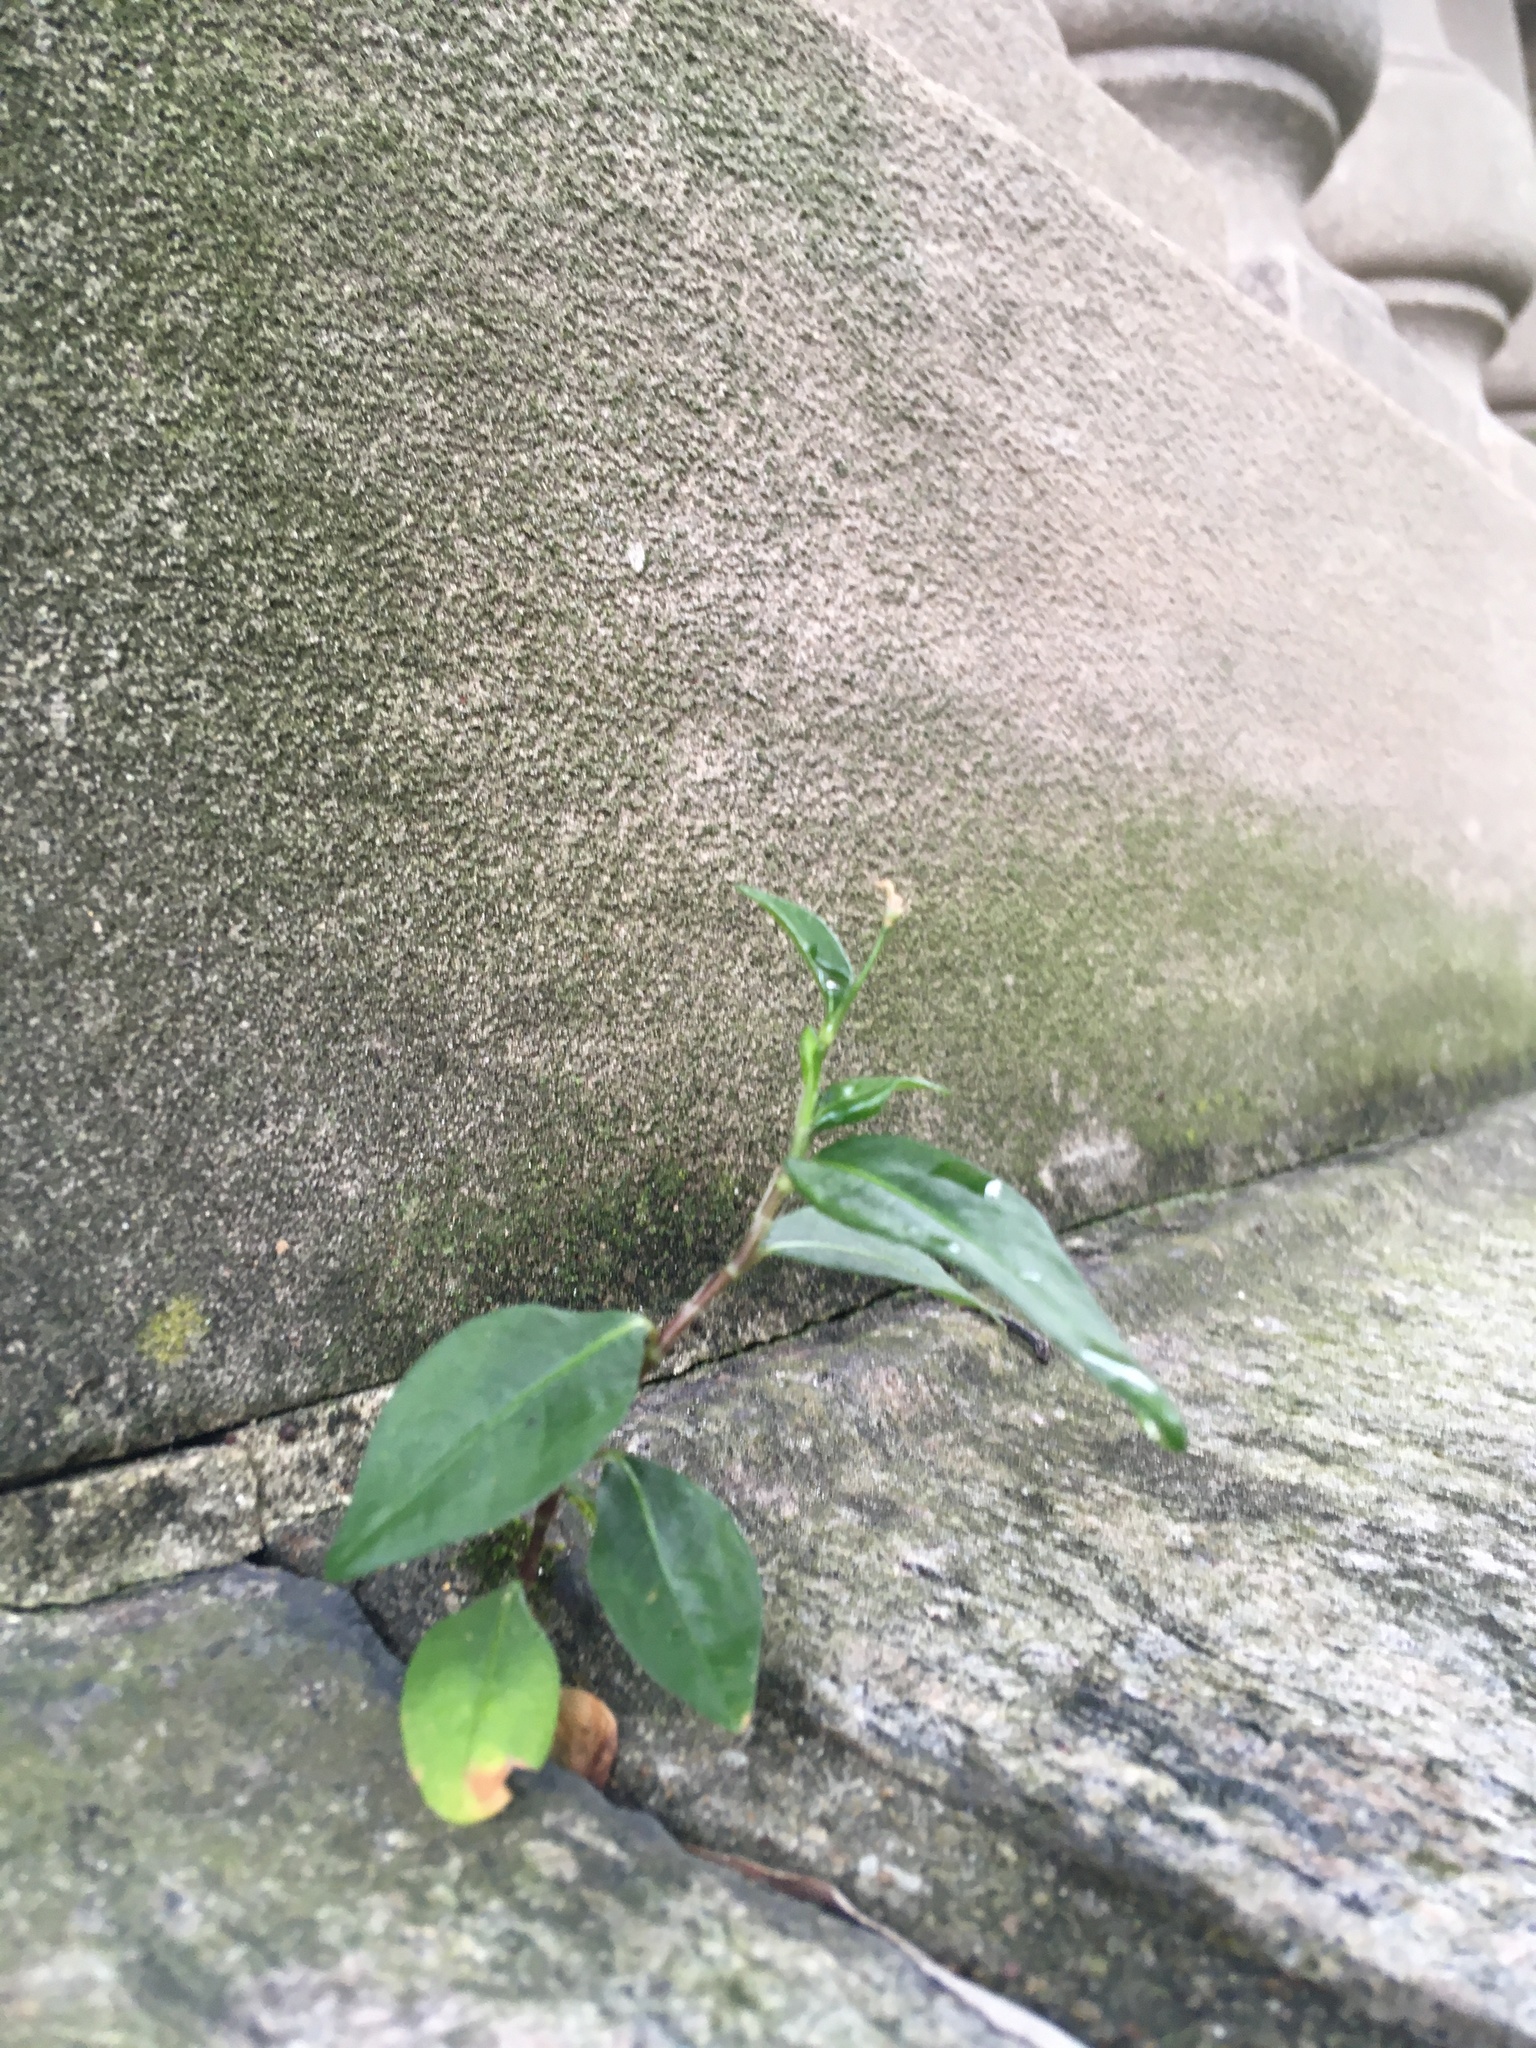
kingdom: Plantae
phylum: Tracheophyta
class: Magnoliopsida
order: Caryophyllales
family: Polygonaceae
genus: Persicaria
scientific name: Persicaria longiseta
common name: Bristly lady's-thumb
